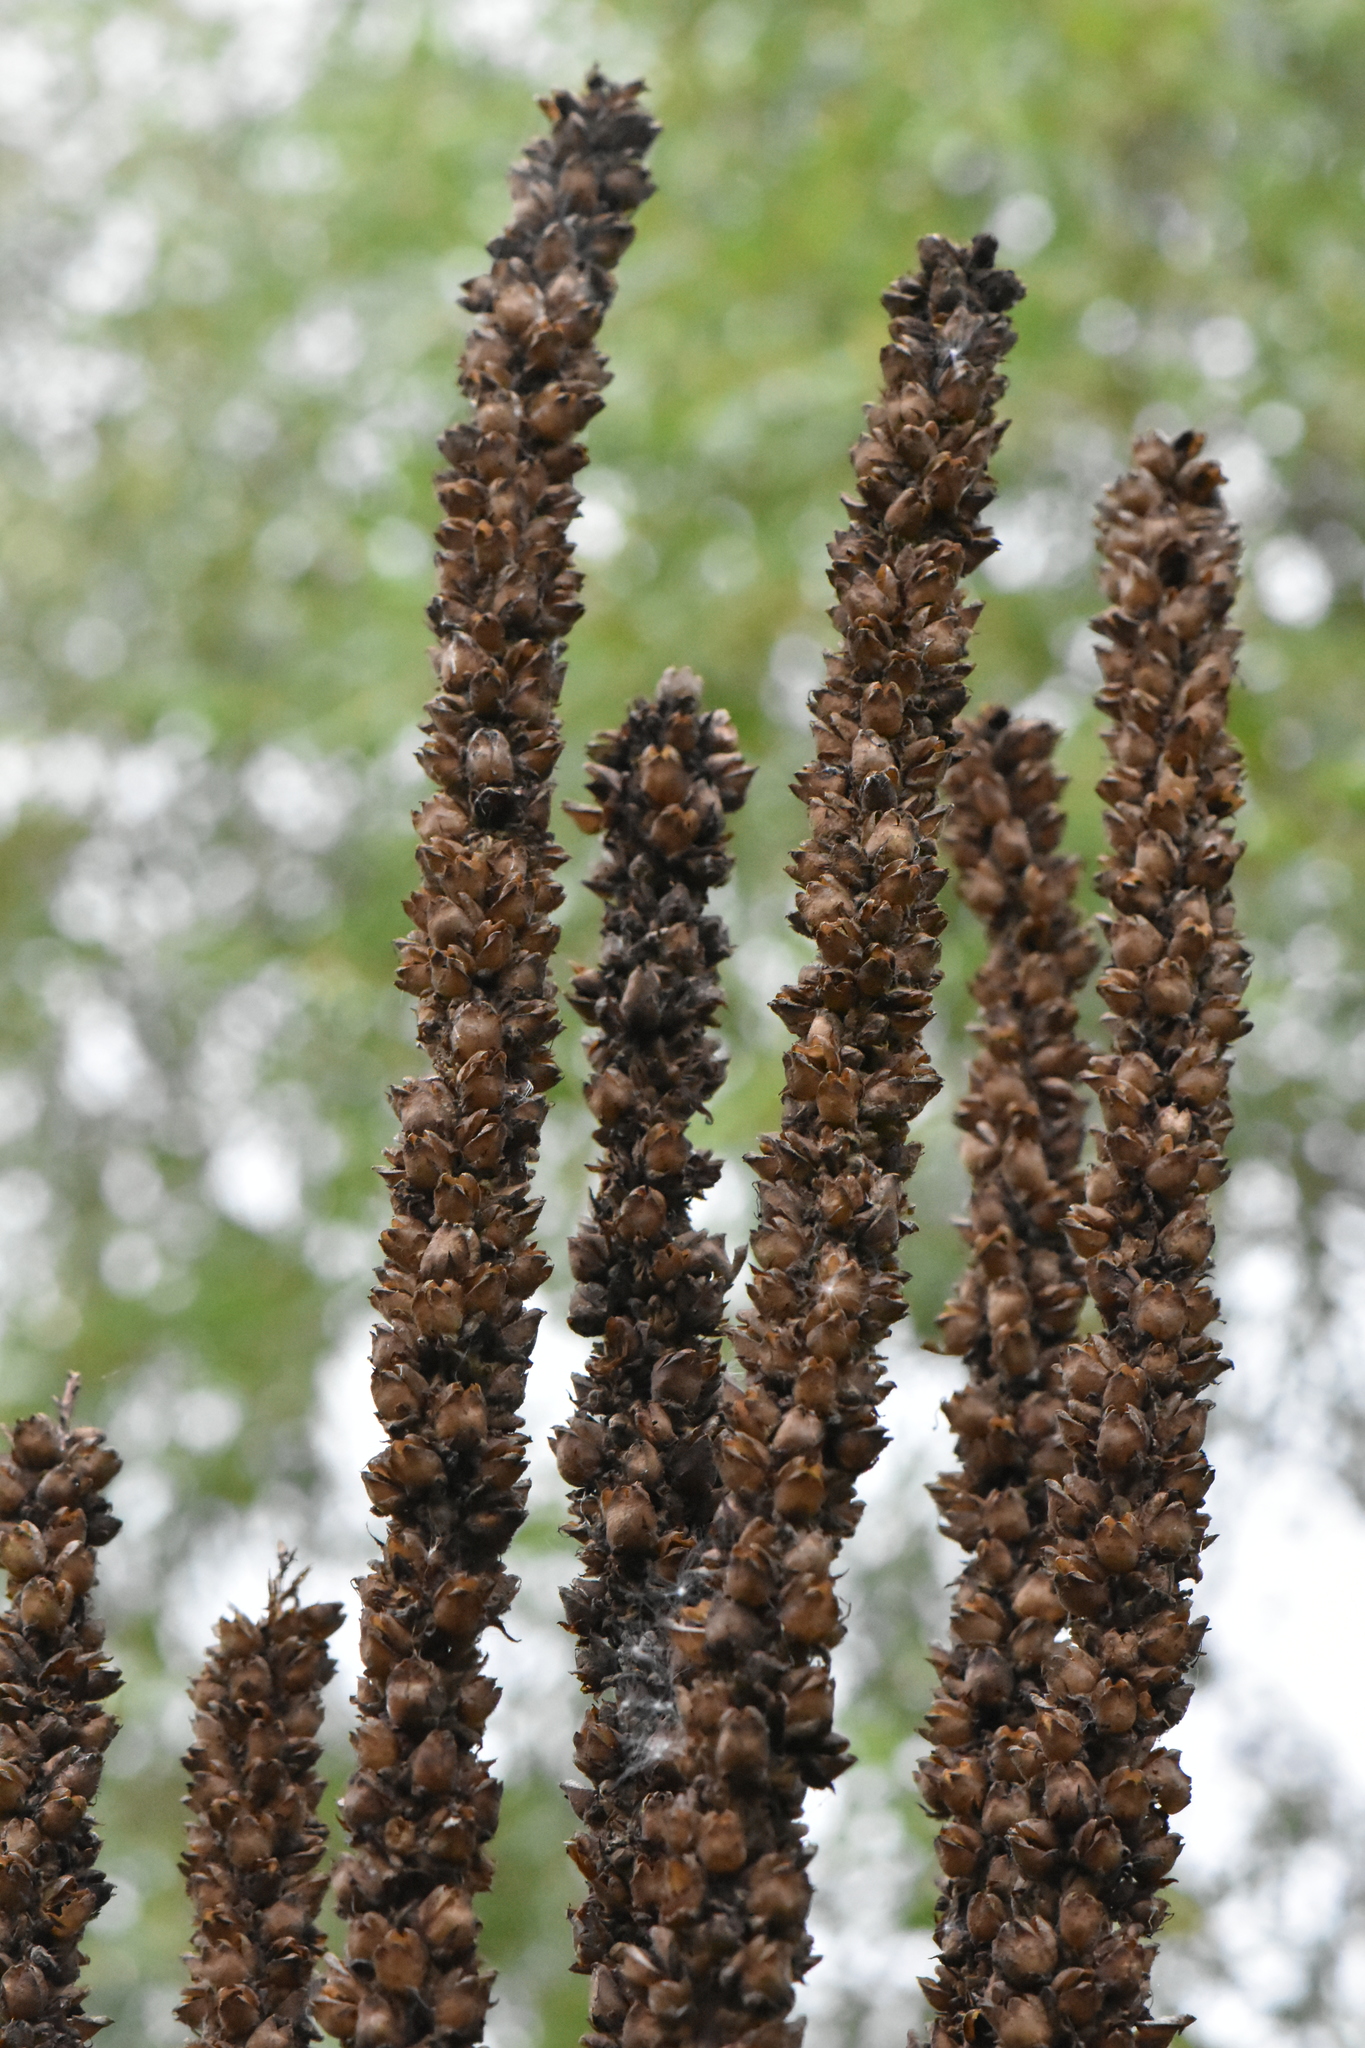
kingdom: Plantae
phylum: Tracheophyta
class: Magnoliopsida
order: Lamiales
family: Scrophulariaceae
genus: Verbascum
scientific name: Verbascum thapsus
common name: Common mullein
